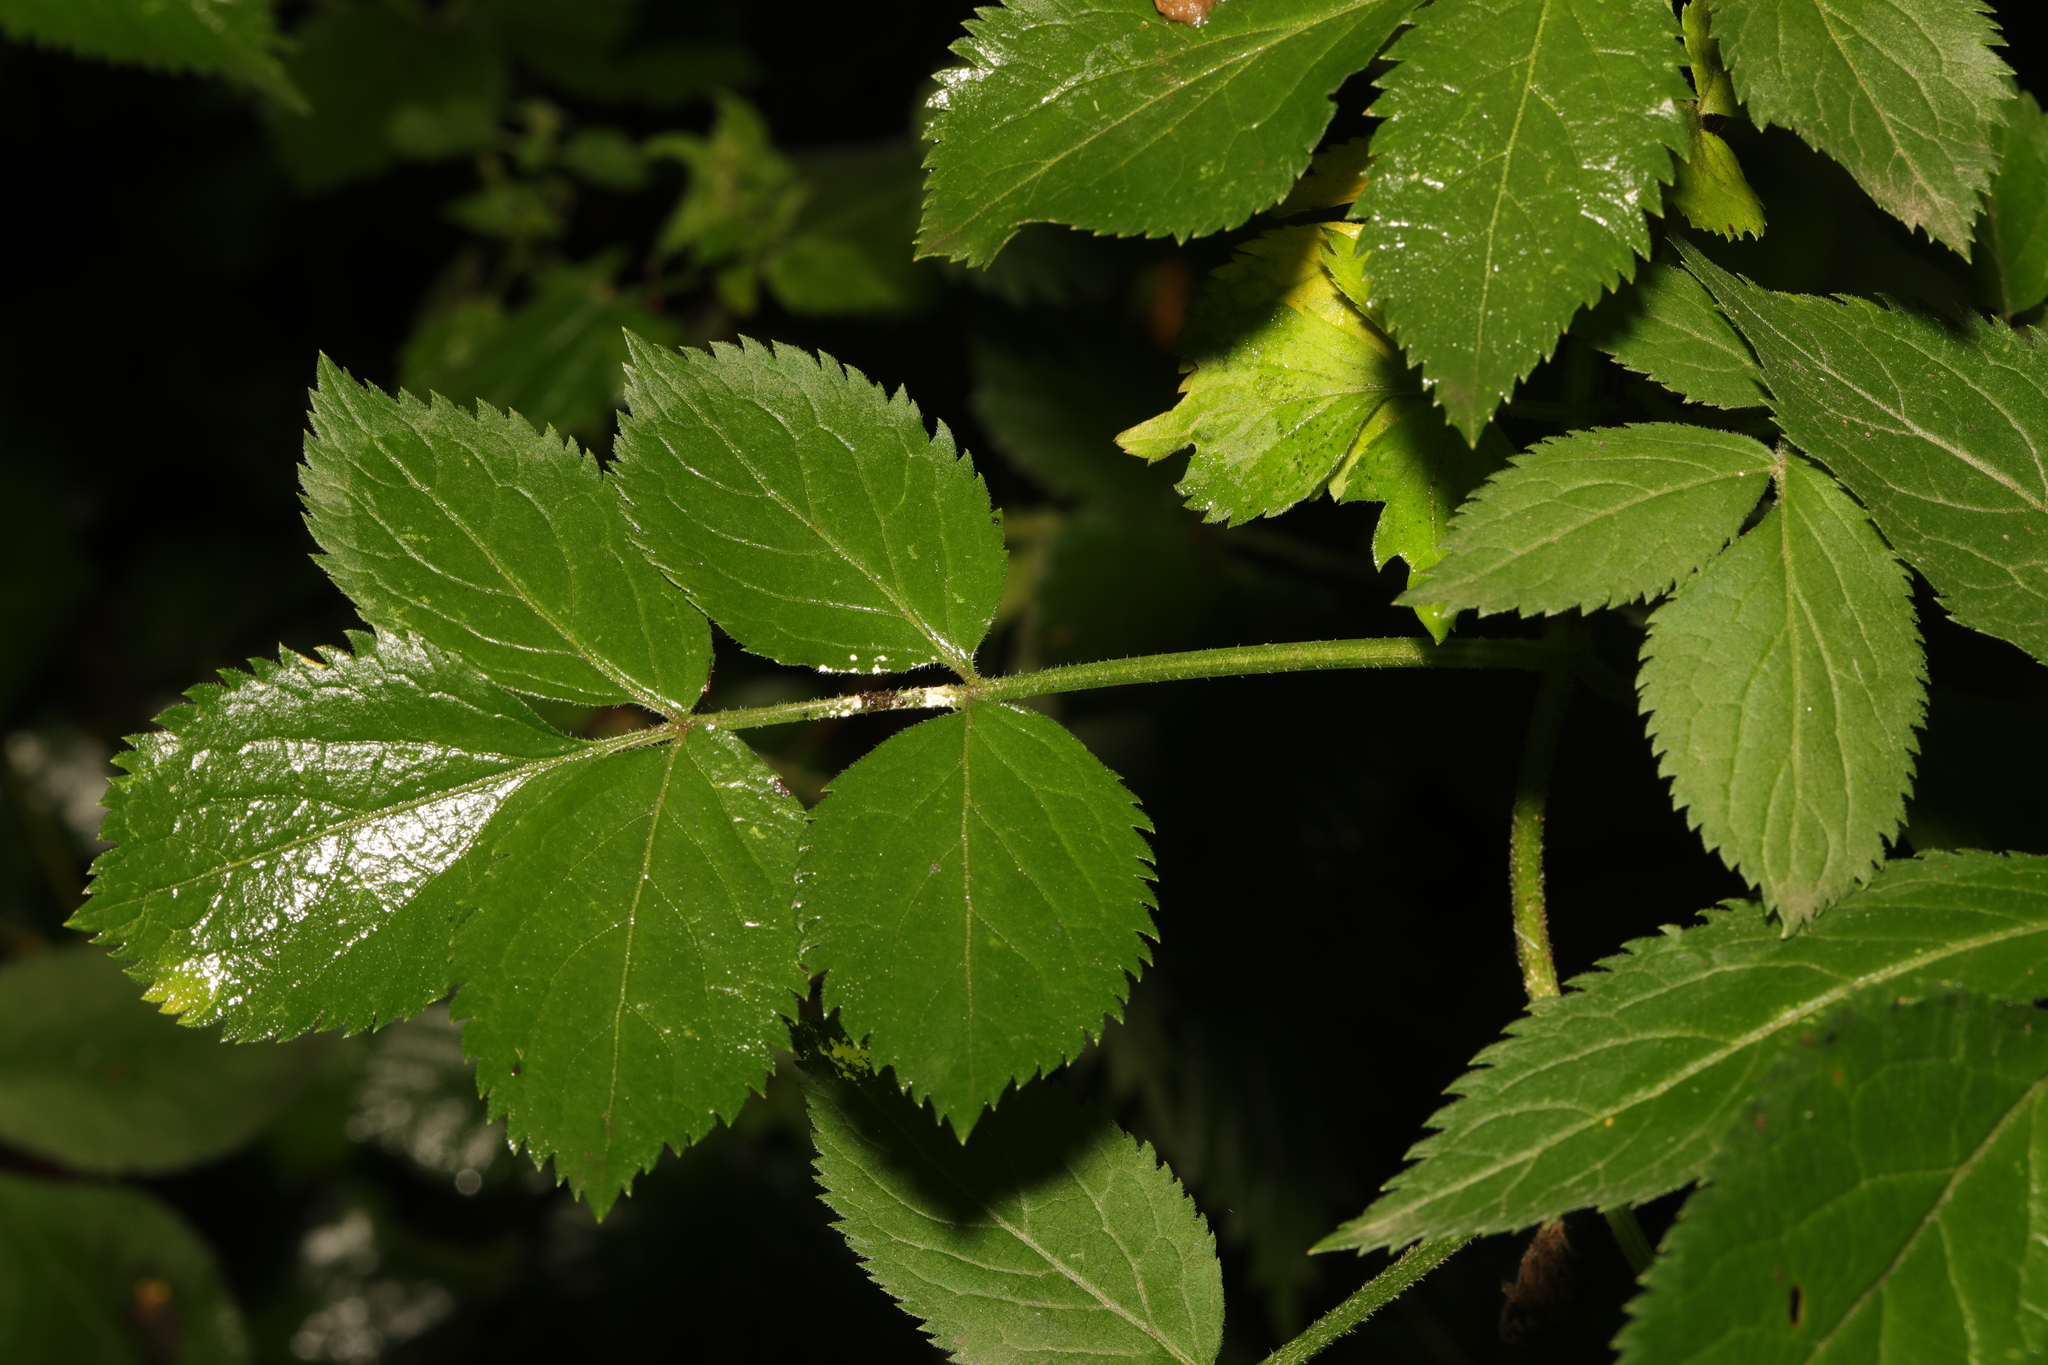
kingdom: Plantae
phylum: Tracheophyta
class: Magnoliopsida
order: Dipsacales
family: Viburnaceae
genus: Sambucus
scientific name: Sambucus nigra
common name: Elder
